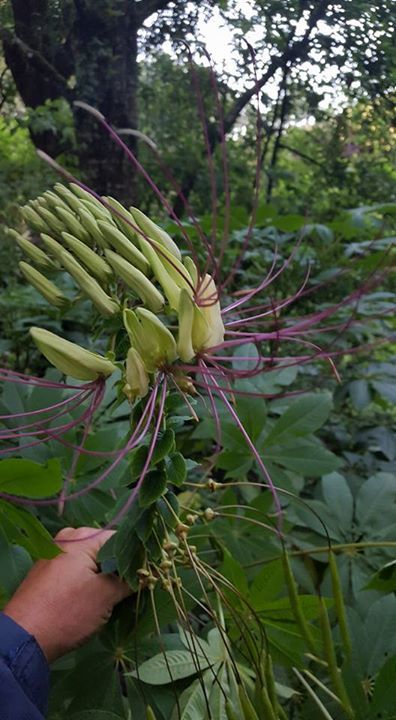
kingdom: Plantae
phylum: Tracheophyta
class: Magnoliopsida
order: Brassicales
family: Cleomaceae
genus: Andinocleome
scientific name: Andinocleome magnifica
